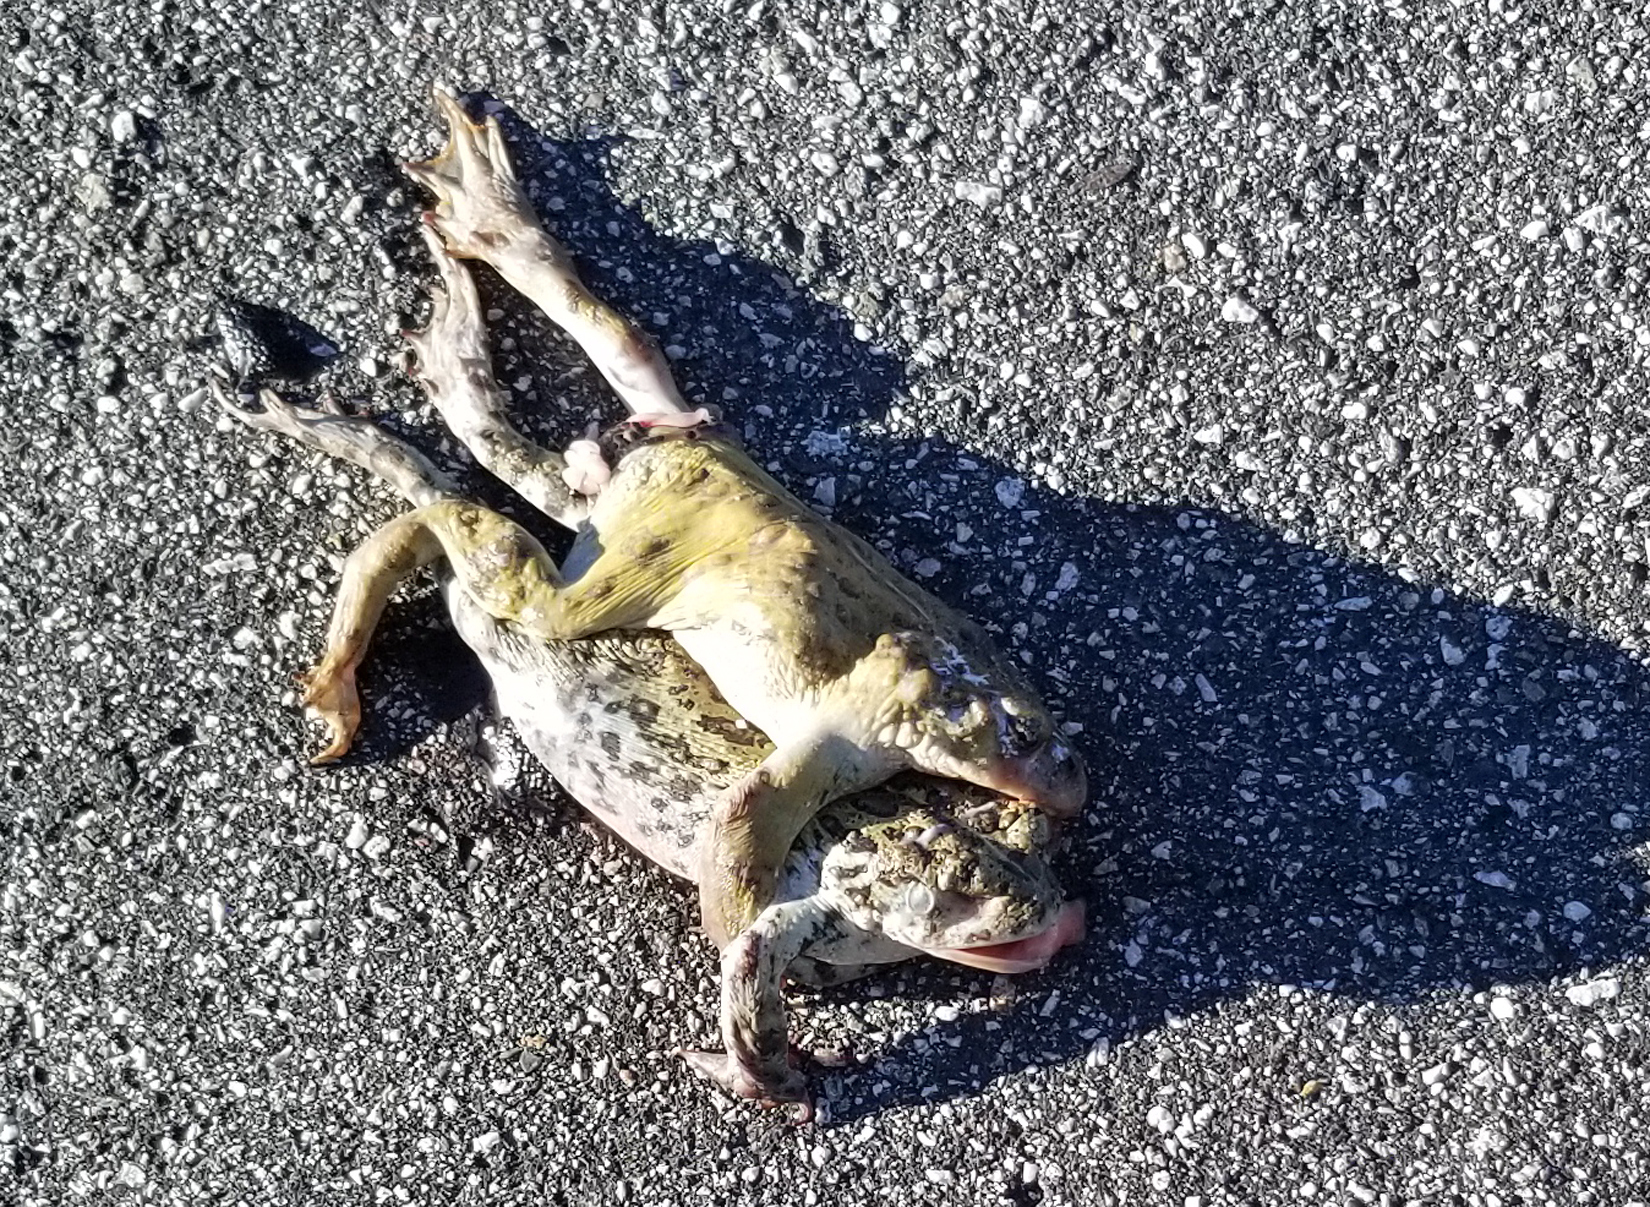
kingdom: Animalia
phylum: Chordata
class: Amphibia
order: Anura
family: Bufonidae
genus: Anaxyrus
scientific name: Anaxyrus boreas
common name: Western toad
